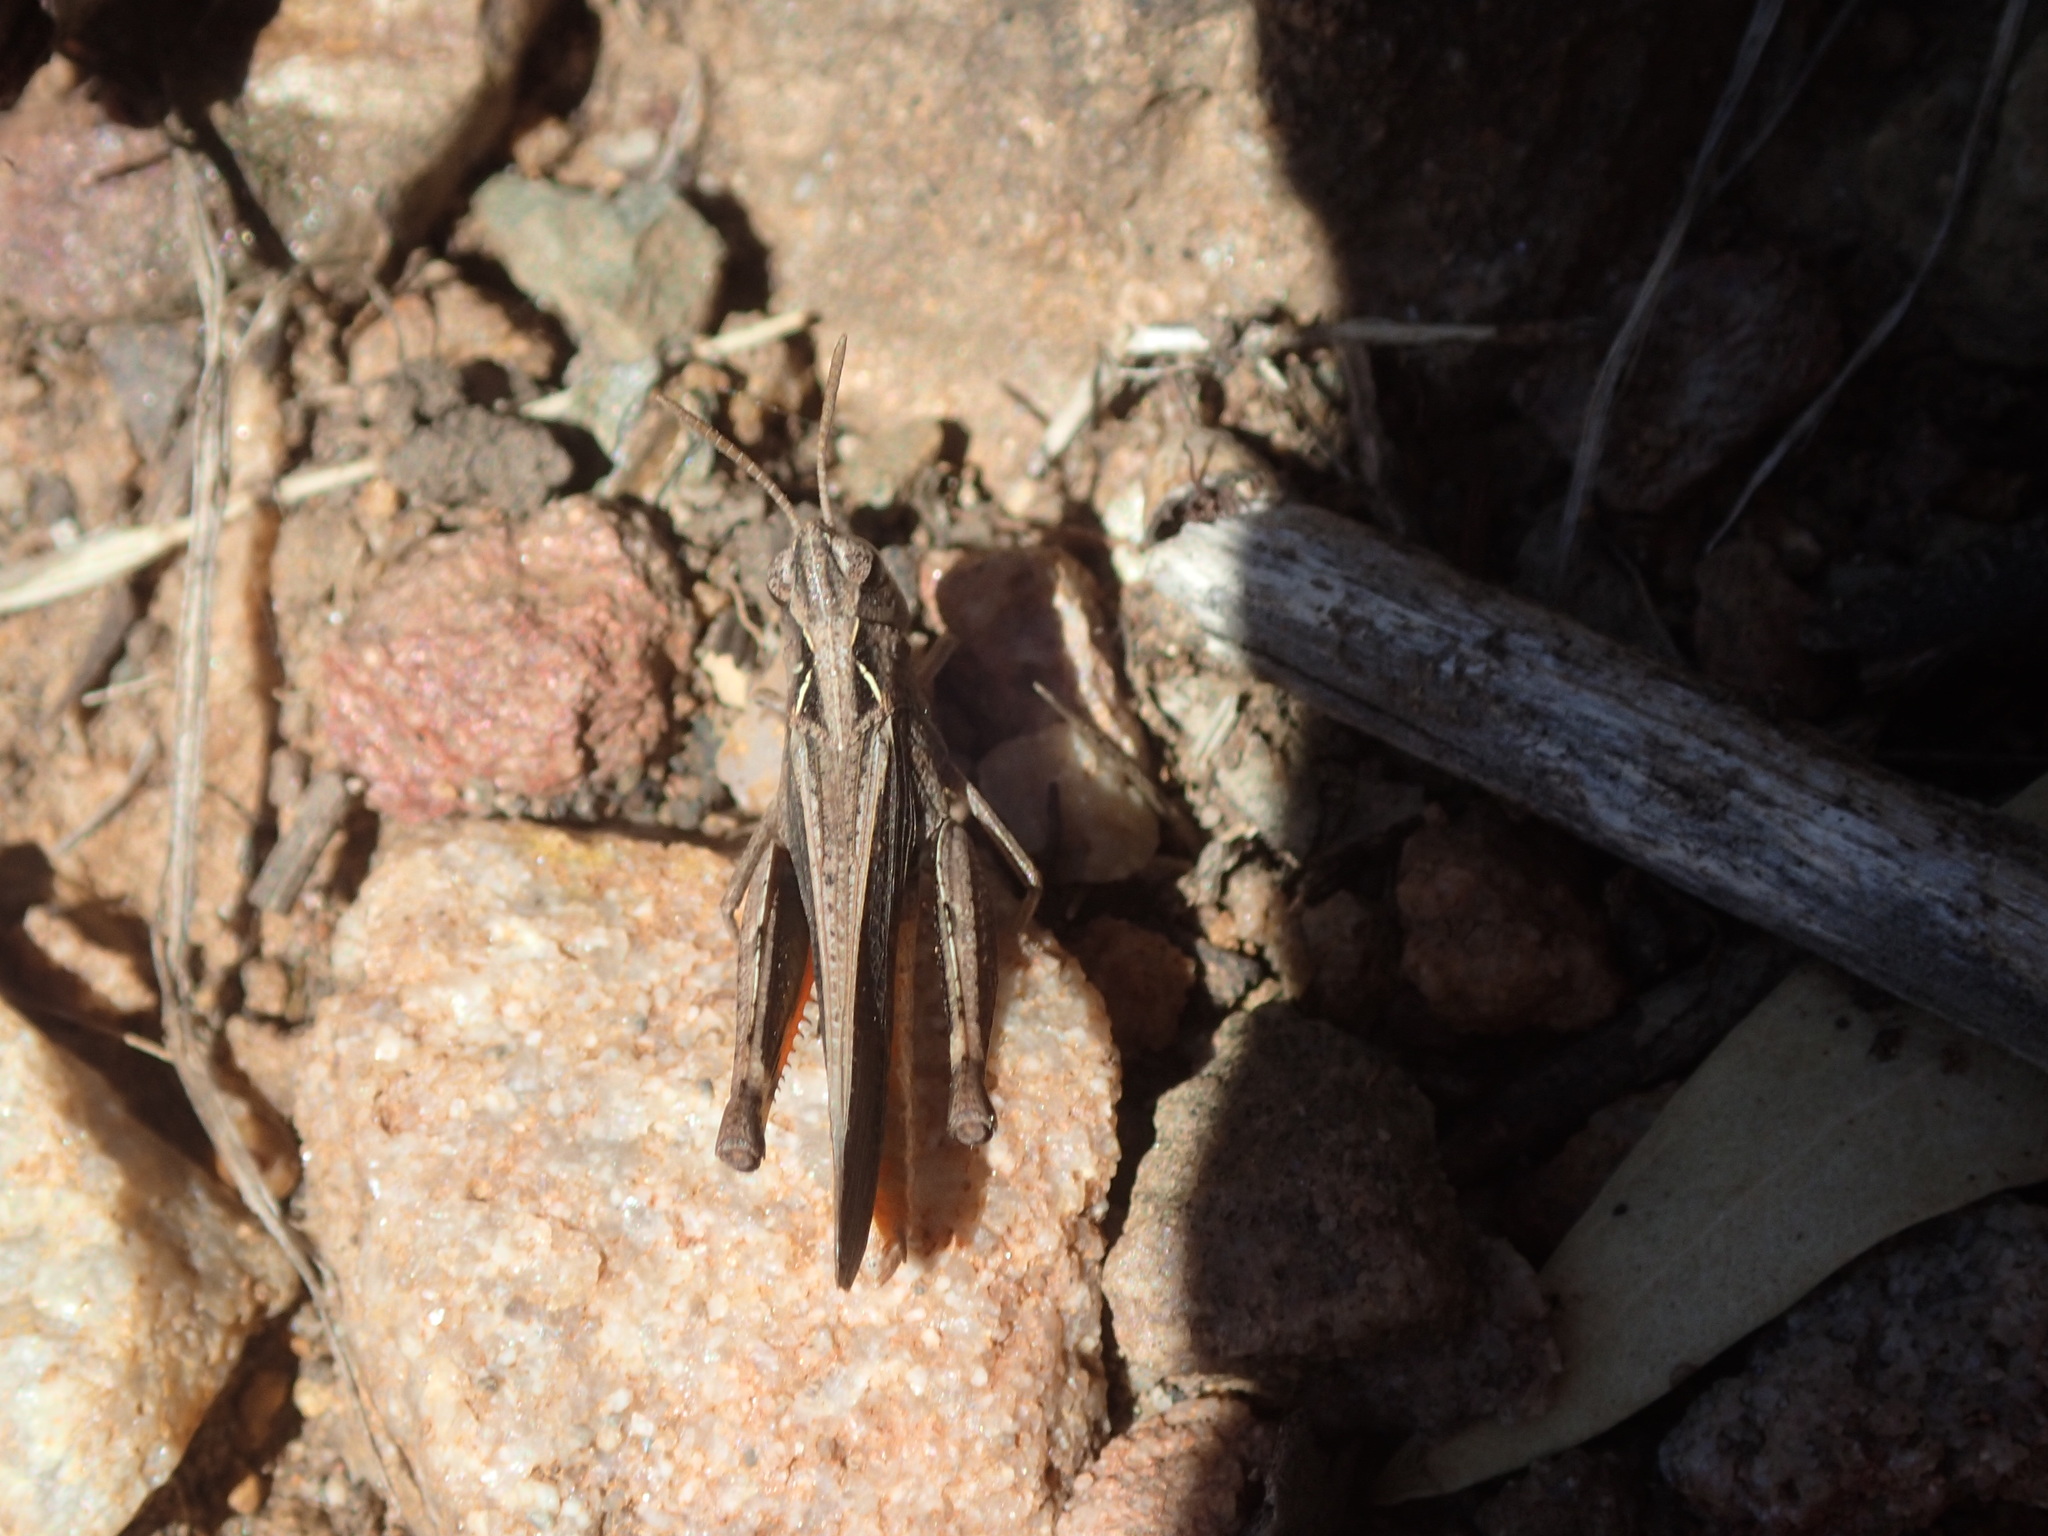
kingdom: Animalia
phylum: Arthropoda
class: Insecta
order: Orthoptera
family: Acrididae
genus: Cryptobothrus
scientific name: Cryptobothrus chrysophorus
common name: Golden bandwing
